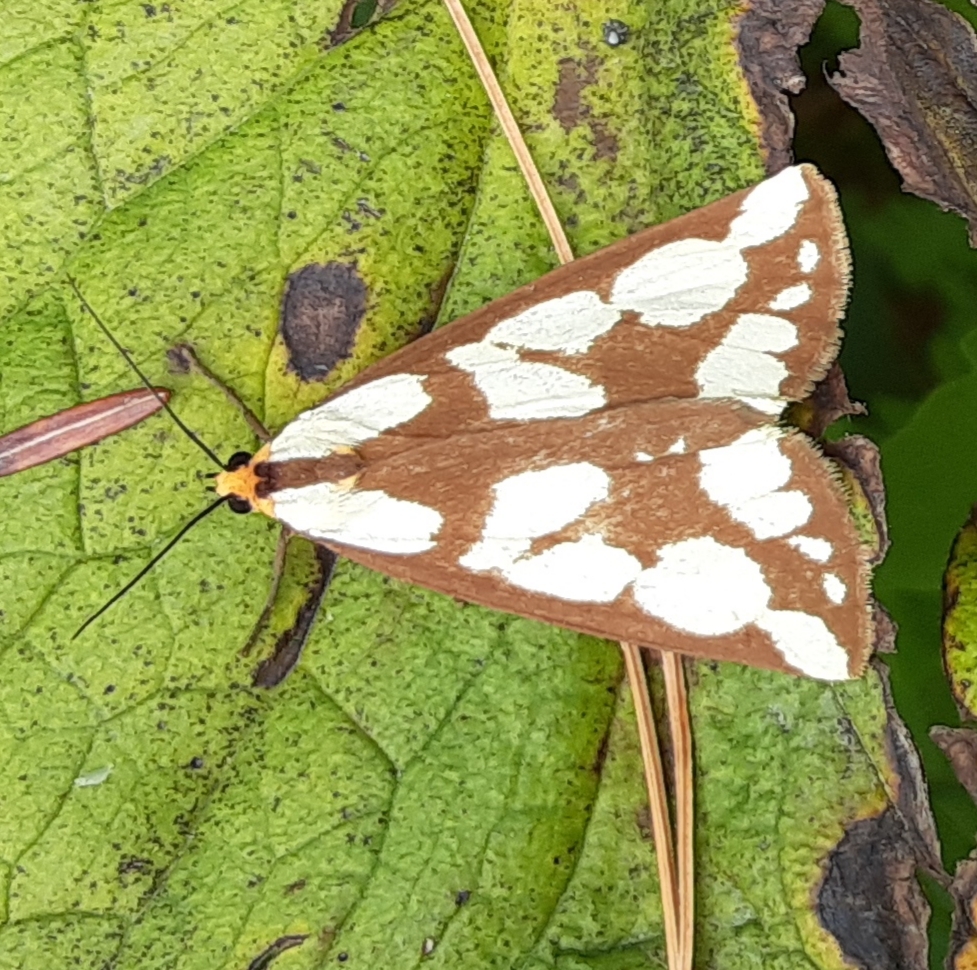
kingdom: Animalia
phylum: Arthropoda
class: Insecta
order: Lepidoptera
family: Erebidae
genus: Haploa
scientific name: Haploa confusa
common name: Confused haploa moth
